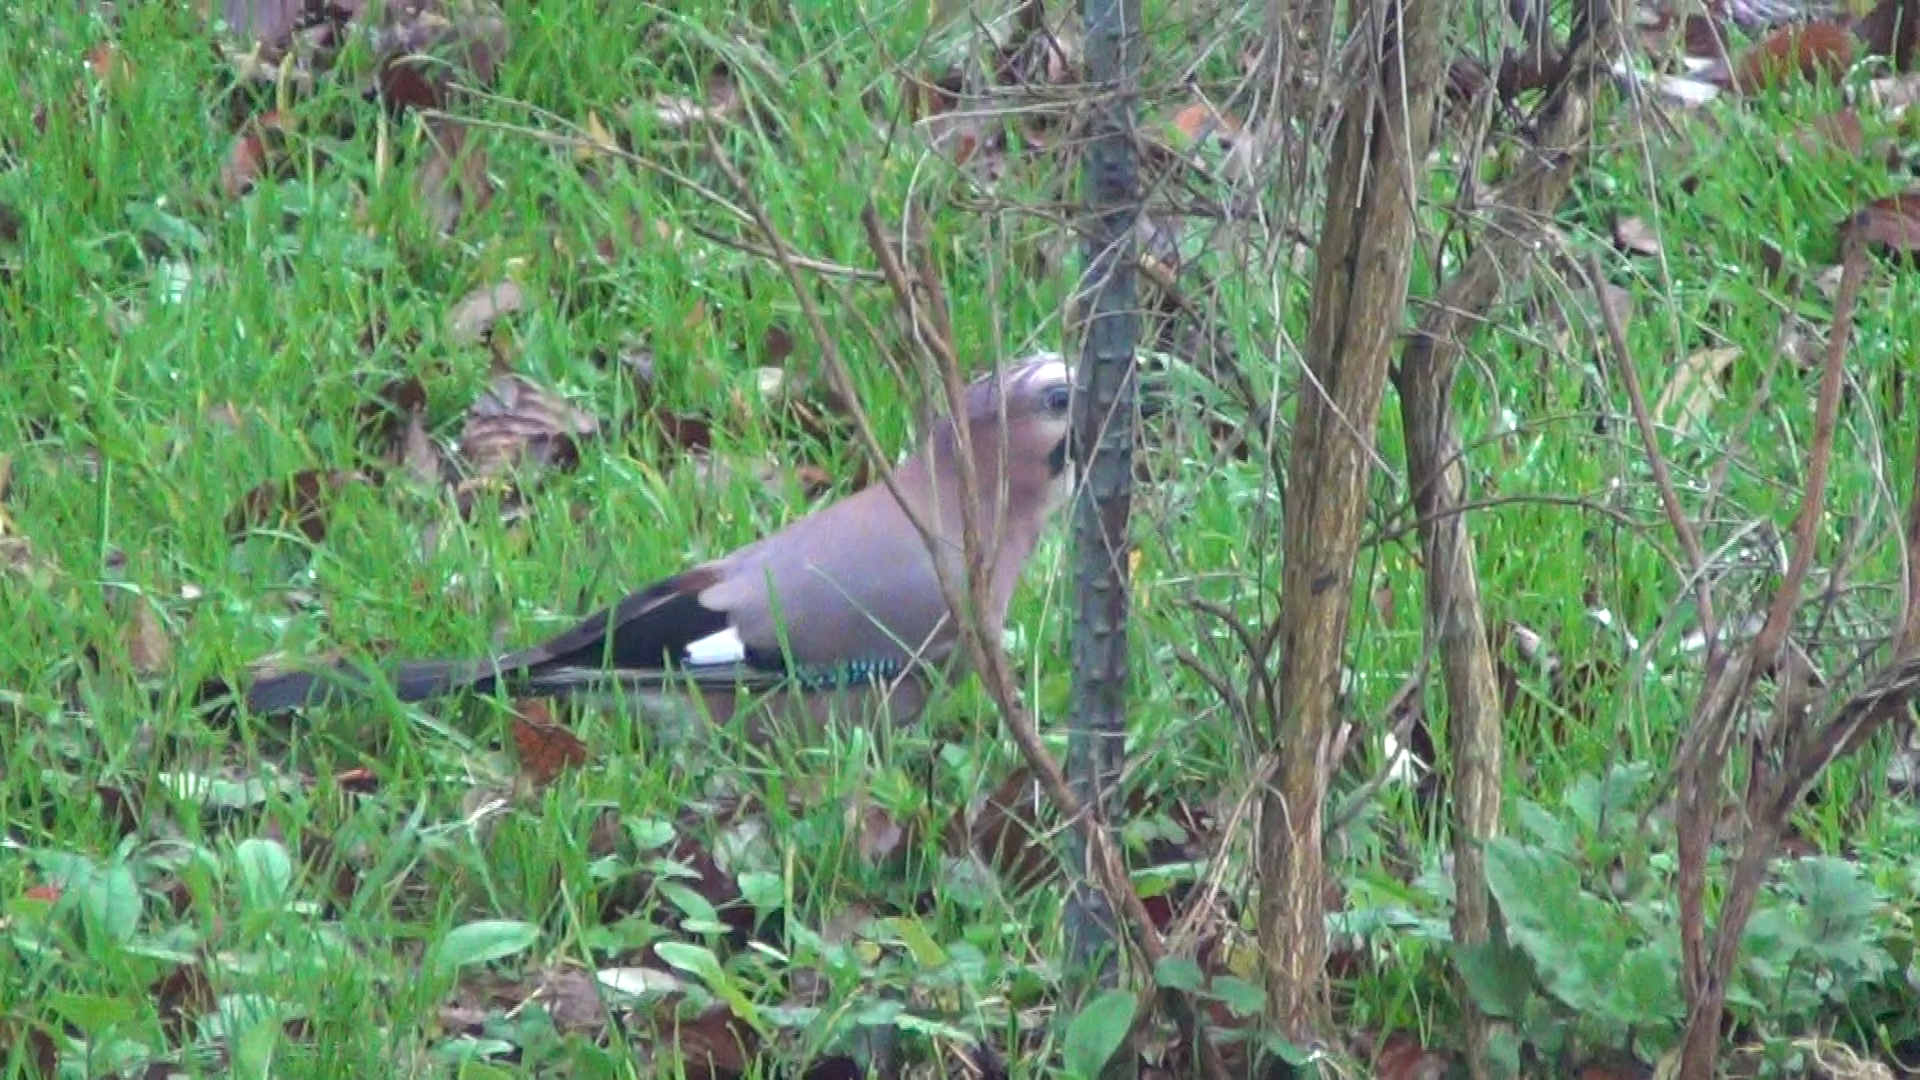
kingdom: Animalia
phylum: Chordata
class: Aves
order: Passeriformes
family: Corvidae
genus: Garrulus
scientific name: Garrulus glandarius
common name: Eurasian jay
